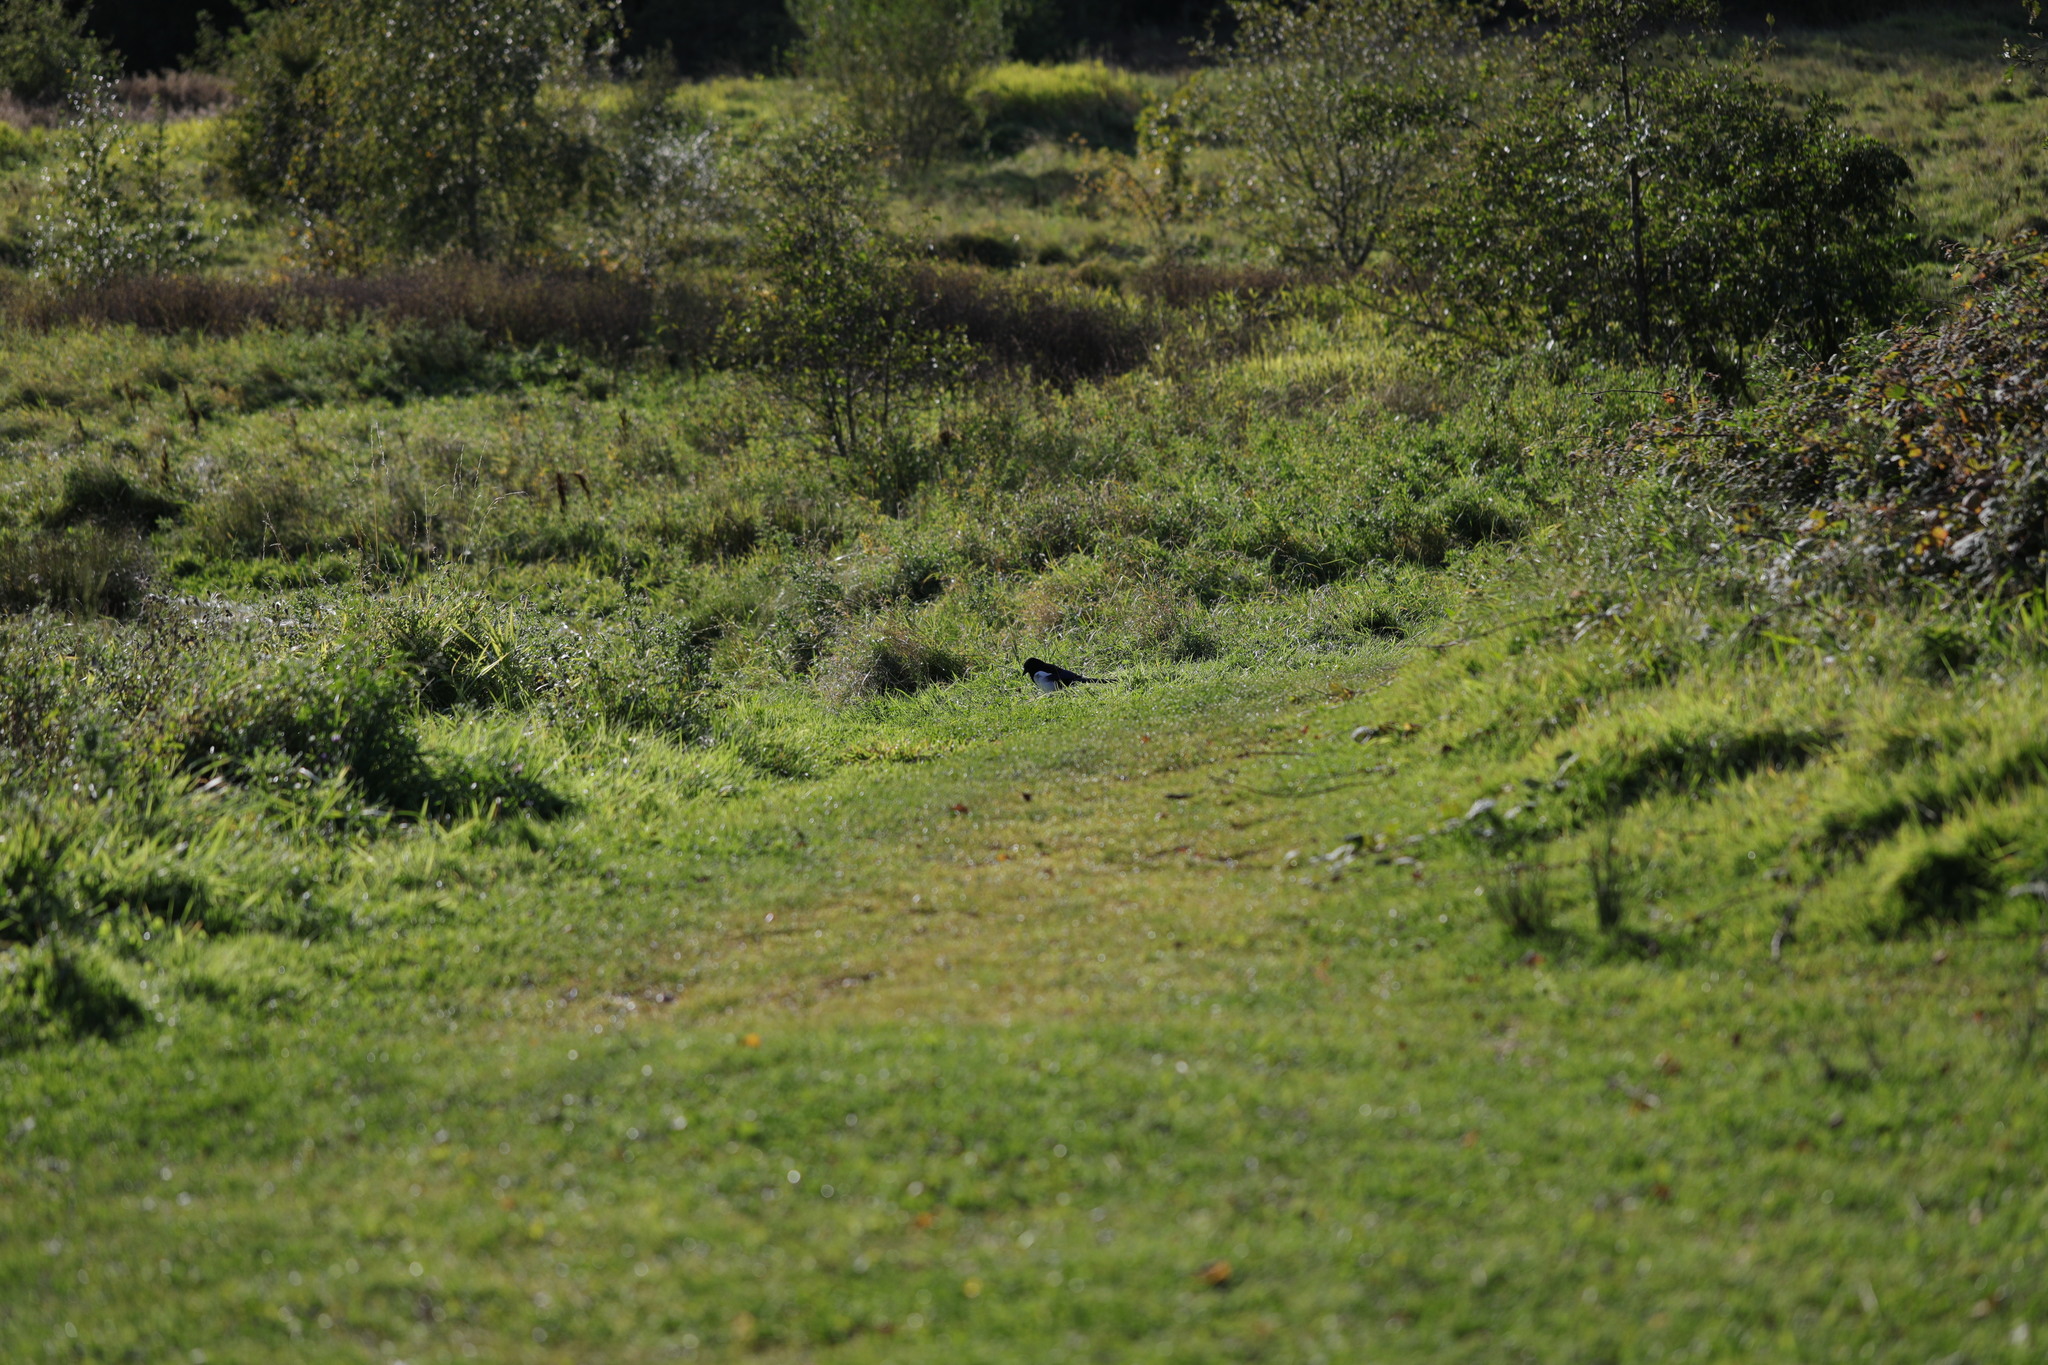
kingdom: Animalia
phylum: Chordata
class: Aves
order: Passeriformes
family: Corvidae
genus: Pica
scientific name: Pica pica
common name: Eurasian magpie
